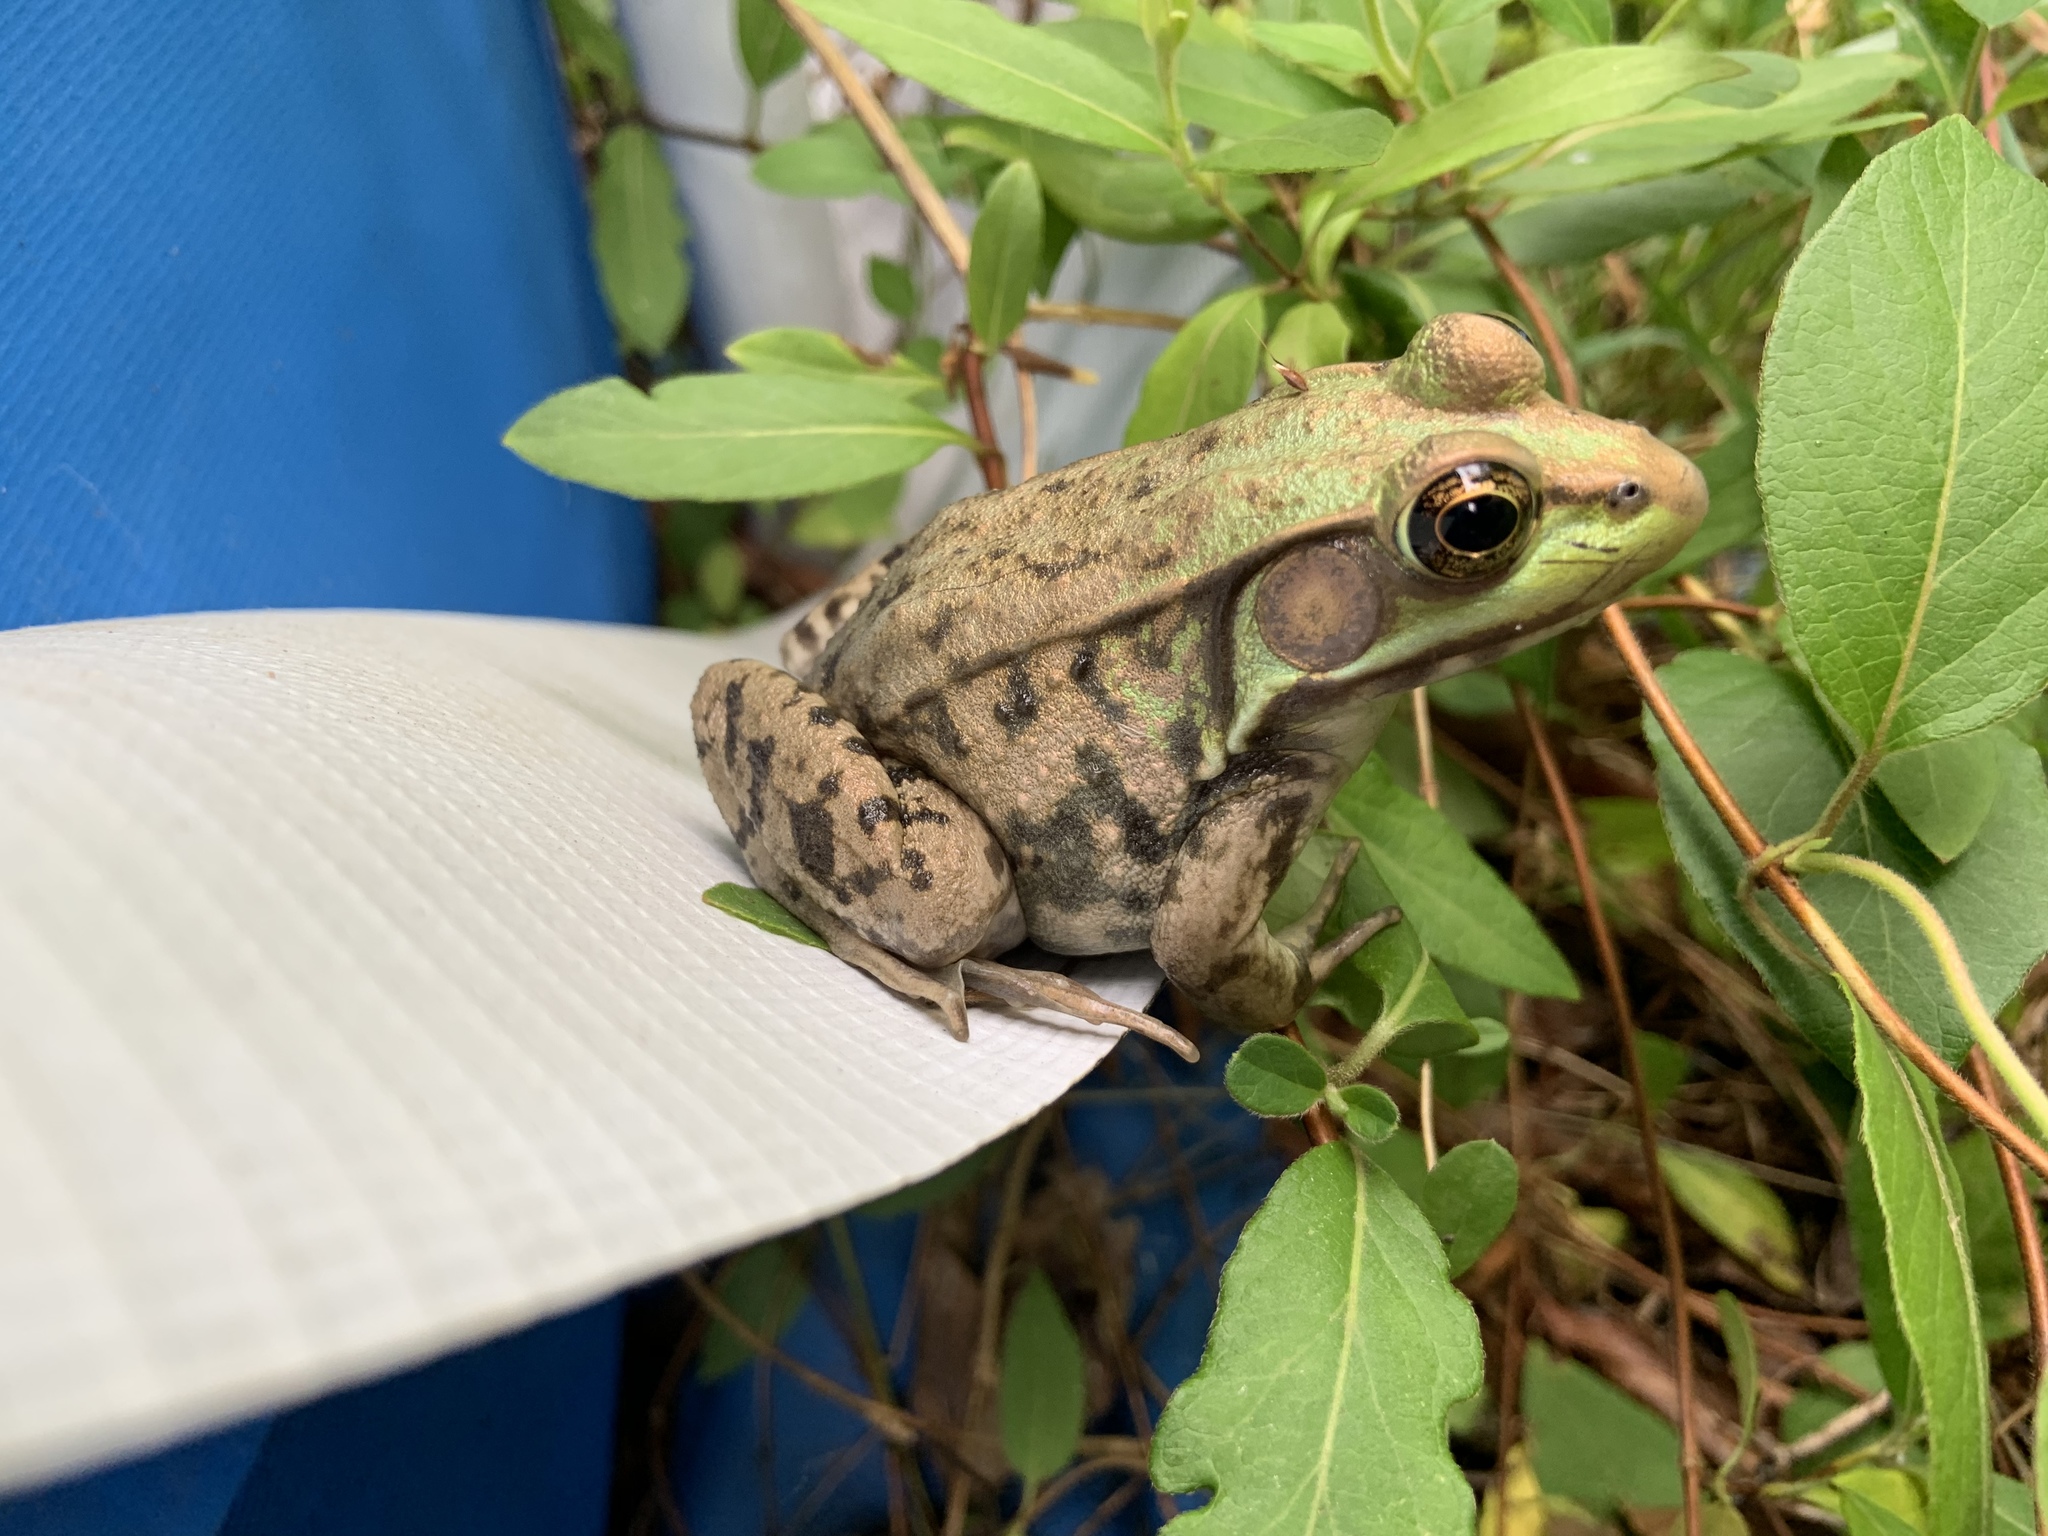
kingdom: Animalia
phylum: Chordata
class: Amphibia
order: Anura
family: Ranidae
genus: Lithobates
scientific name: Lithobates clamitans
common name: Green frog
